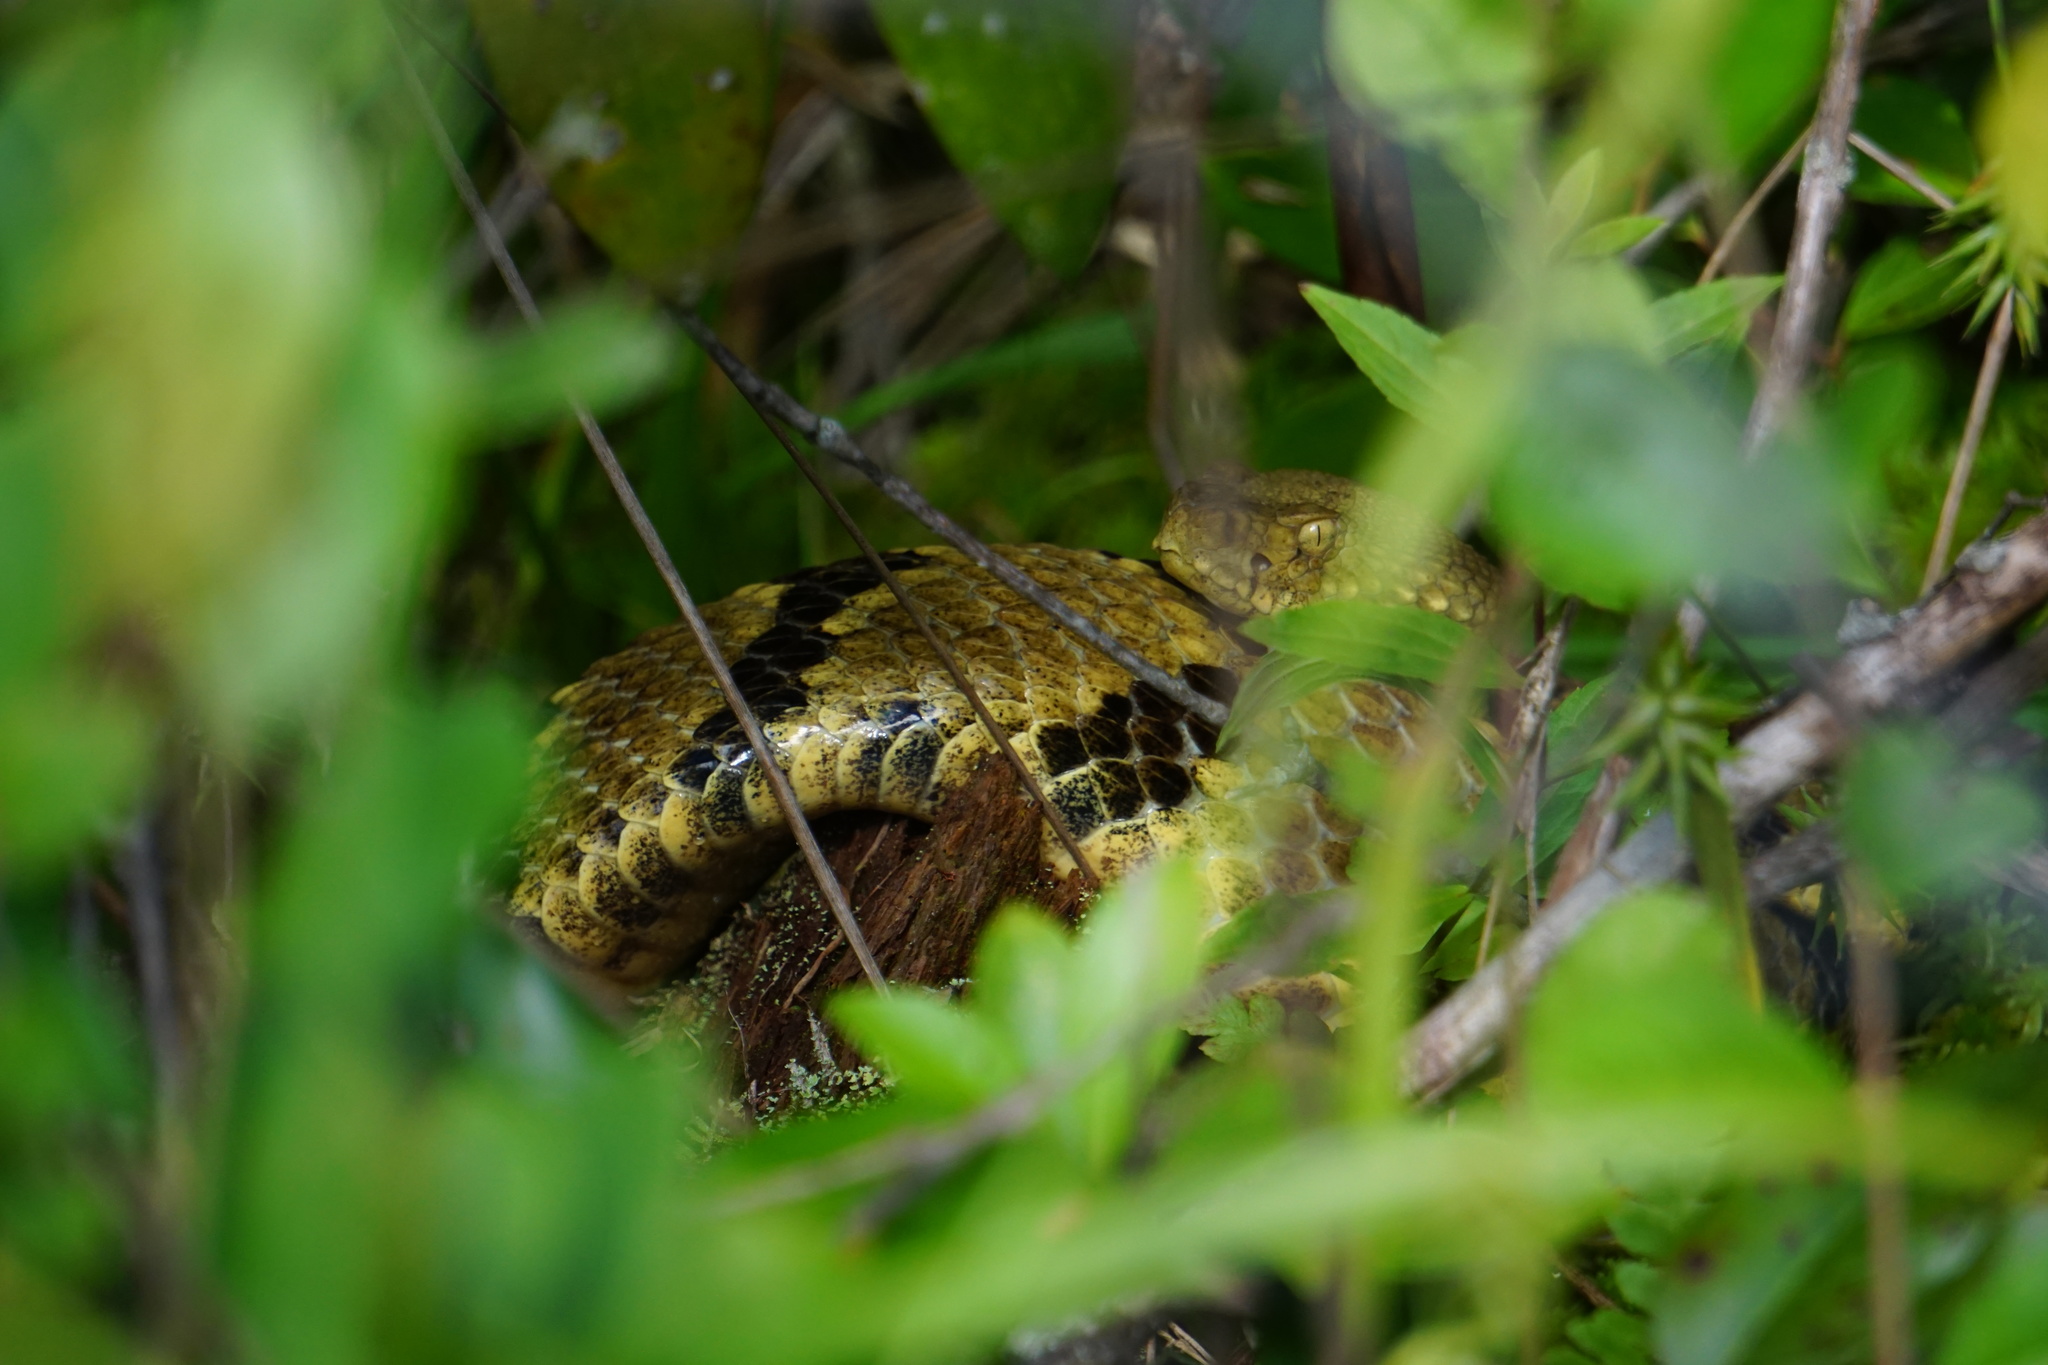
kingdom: Animalia
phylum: Chordata
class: Squamata
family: Viperidae
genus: Crotalus
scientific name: Crotalus horridus
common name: Timber rattlesnake
